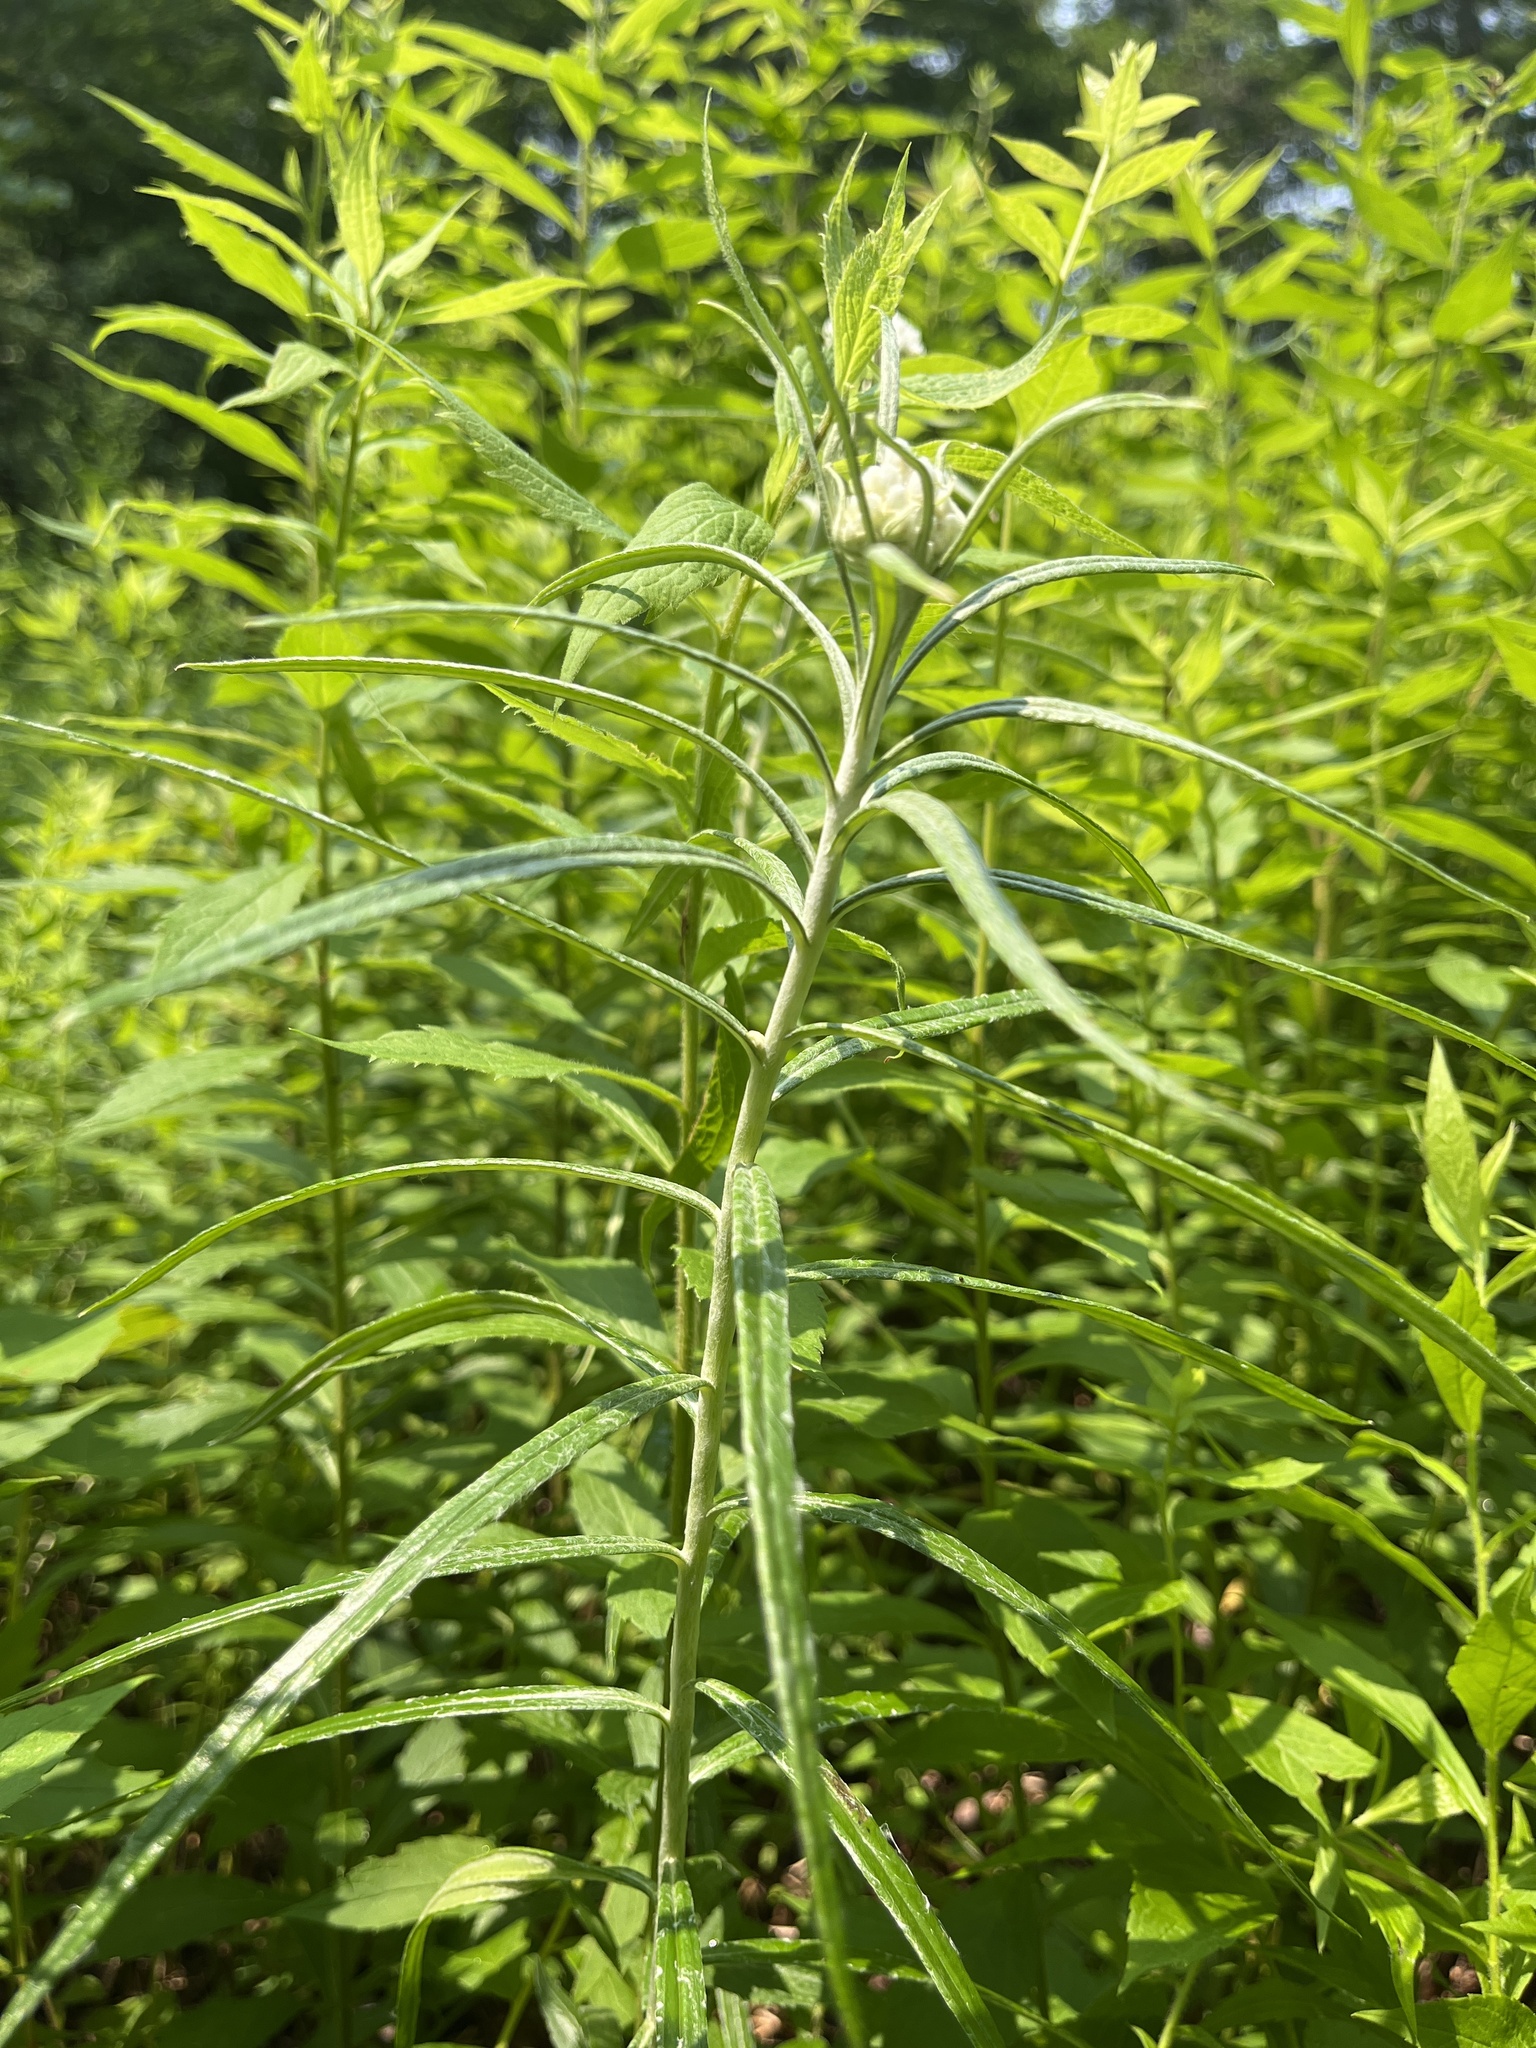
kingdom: Plantae
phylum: Tracheophyta
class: Magnoliopsida
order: Asterales
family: Asteraceae
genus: Anaphalis
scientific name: Anaphalis margaritacea
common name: Pearly everlasting
